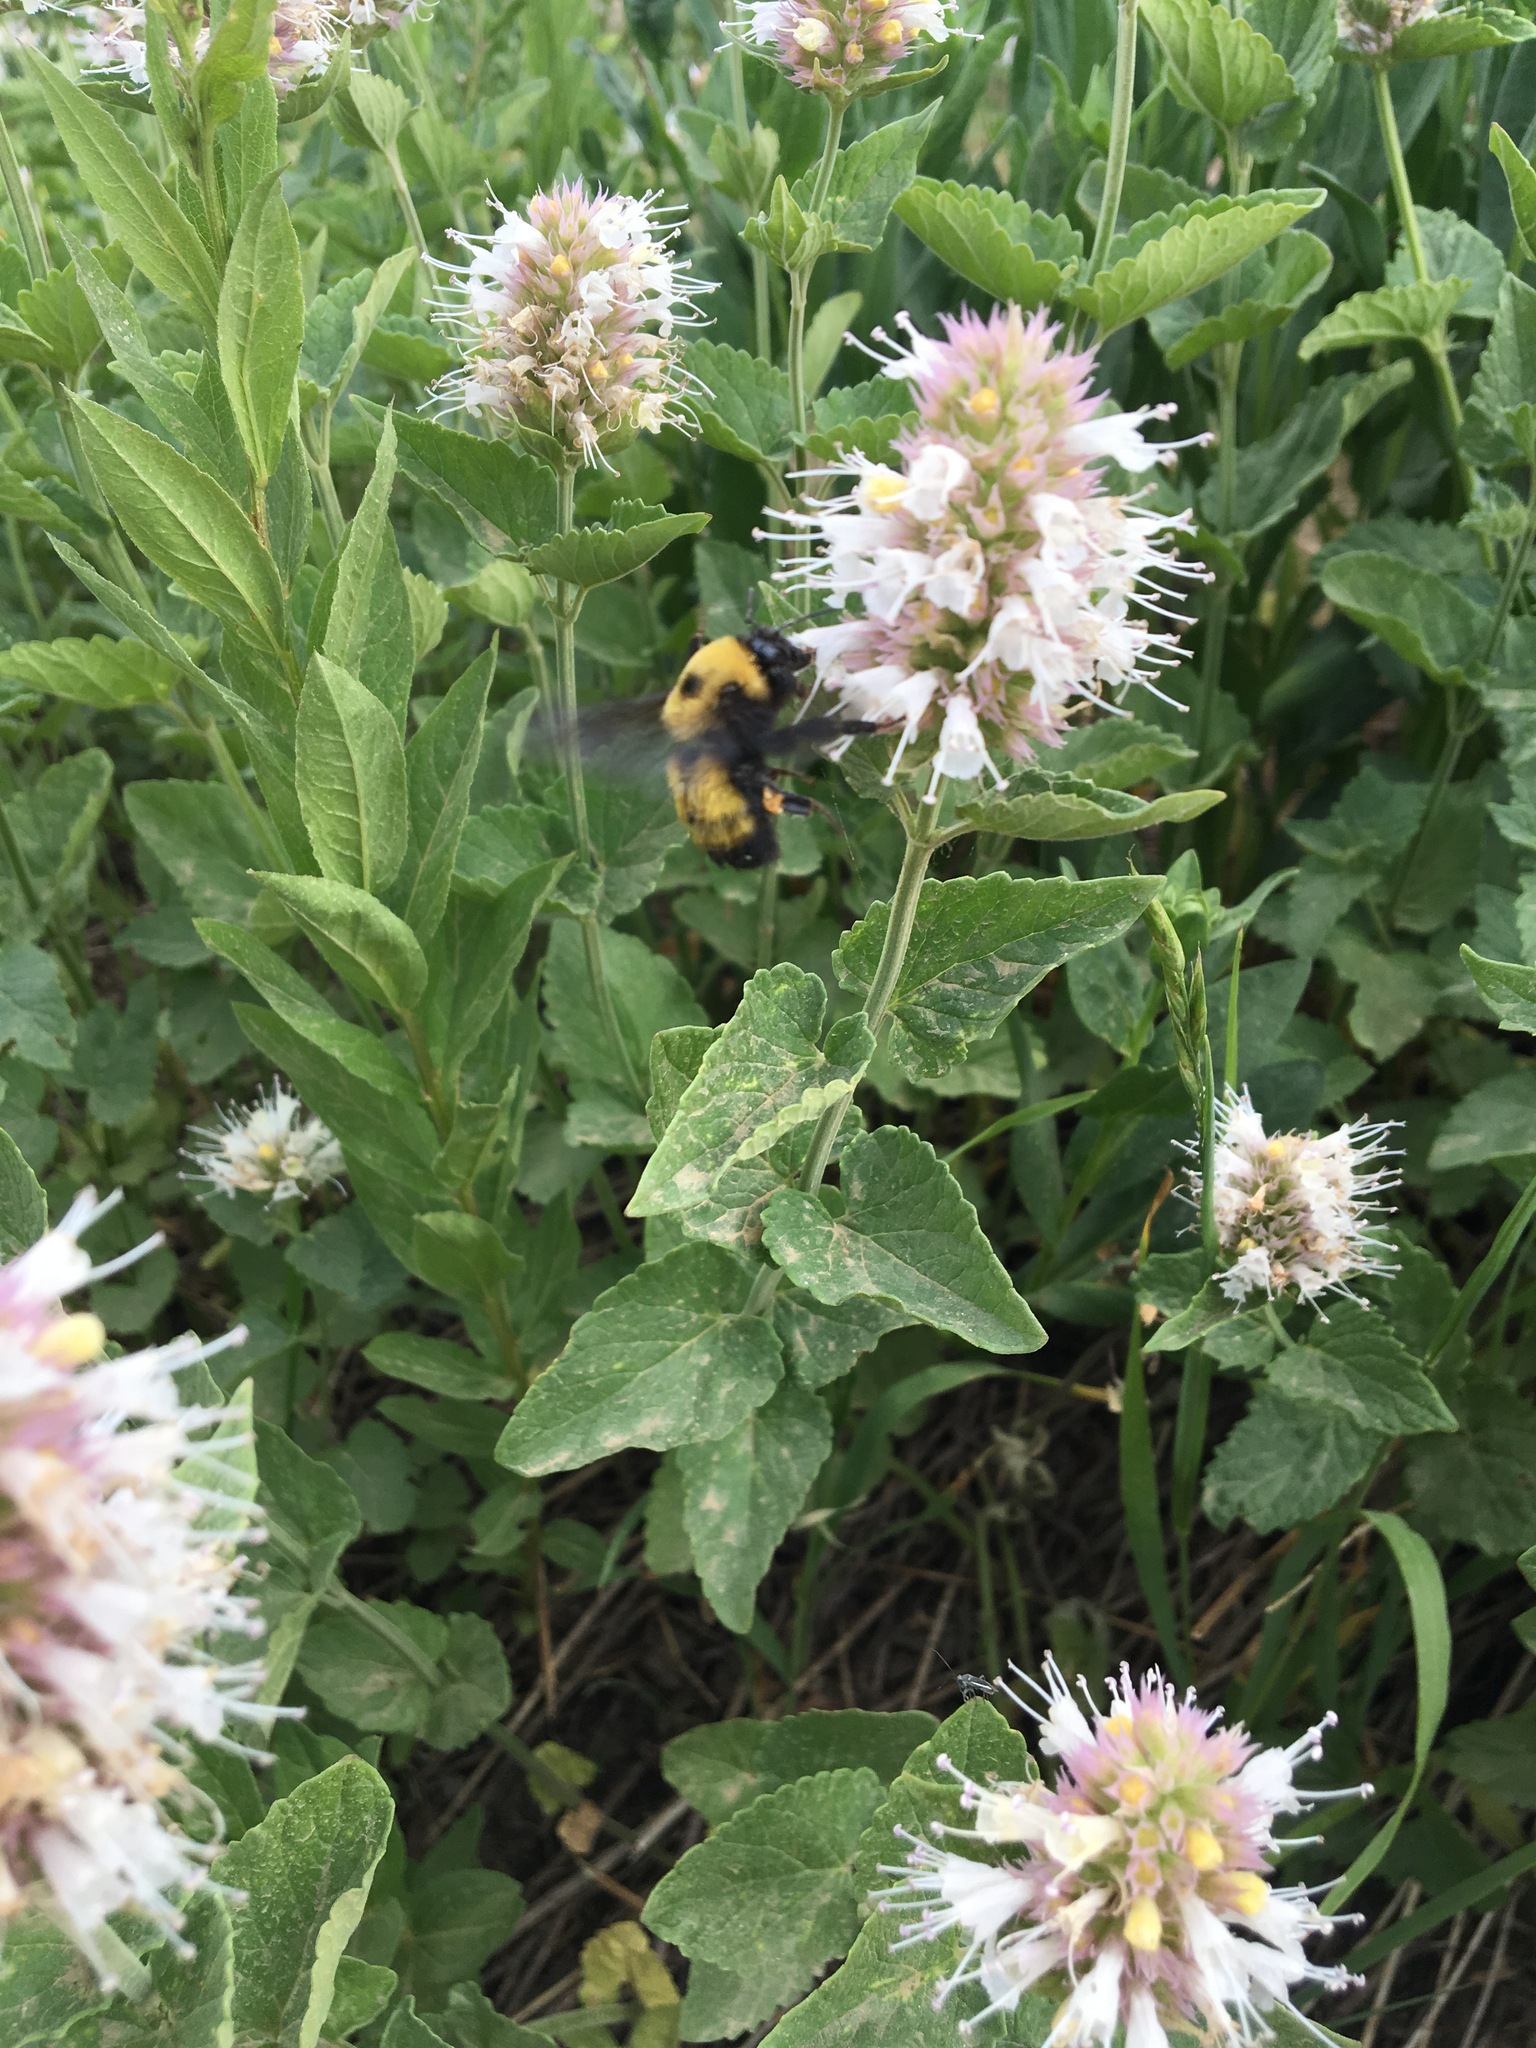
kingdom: Plantae
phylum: Tracheophyta
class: Magnoliopsida
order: Lamiales
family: Lamiaceae
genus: Agastache
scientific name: Agastache urticifolia
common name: Horsemint giant hyssop
